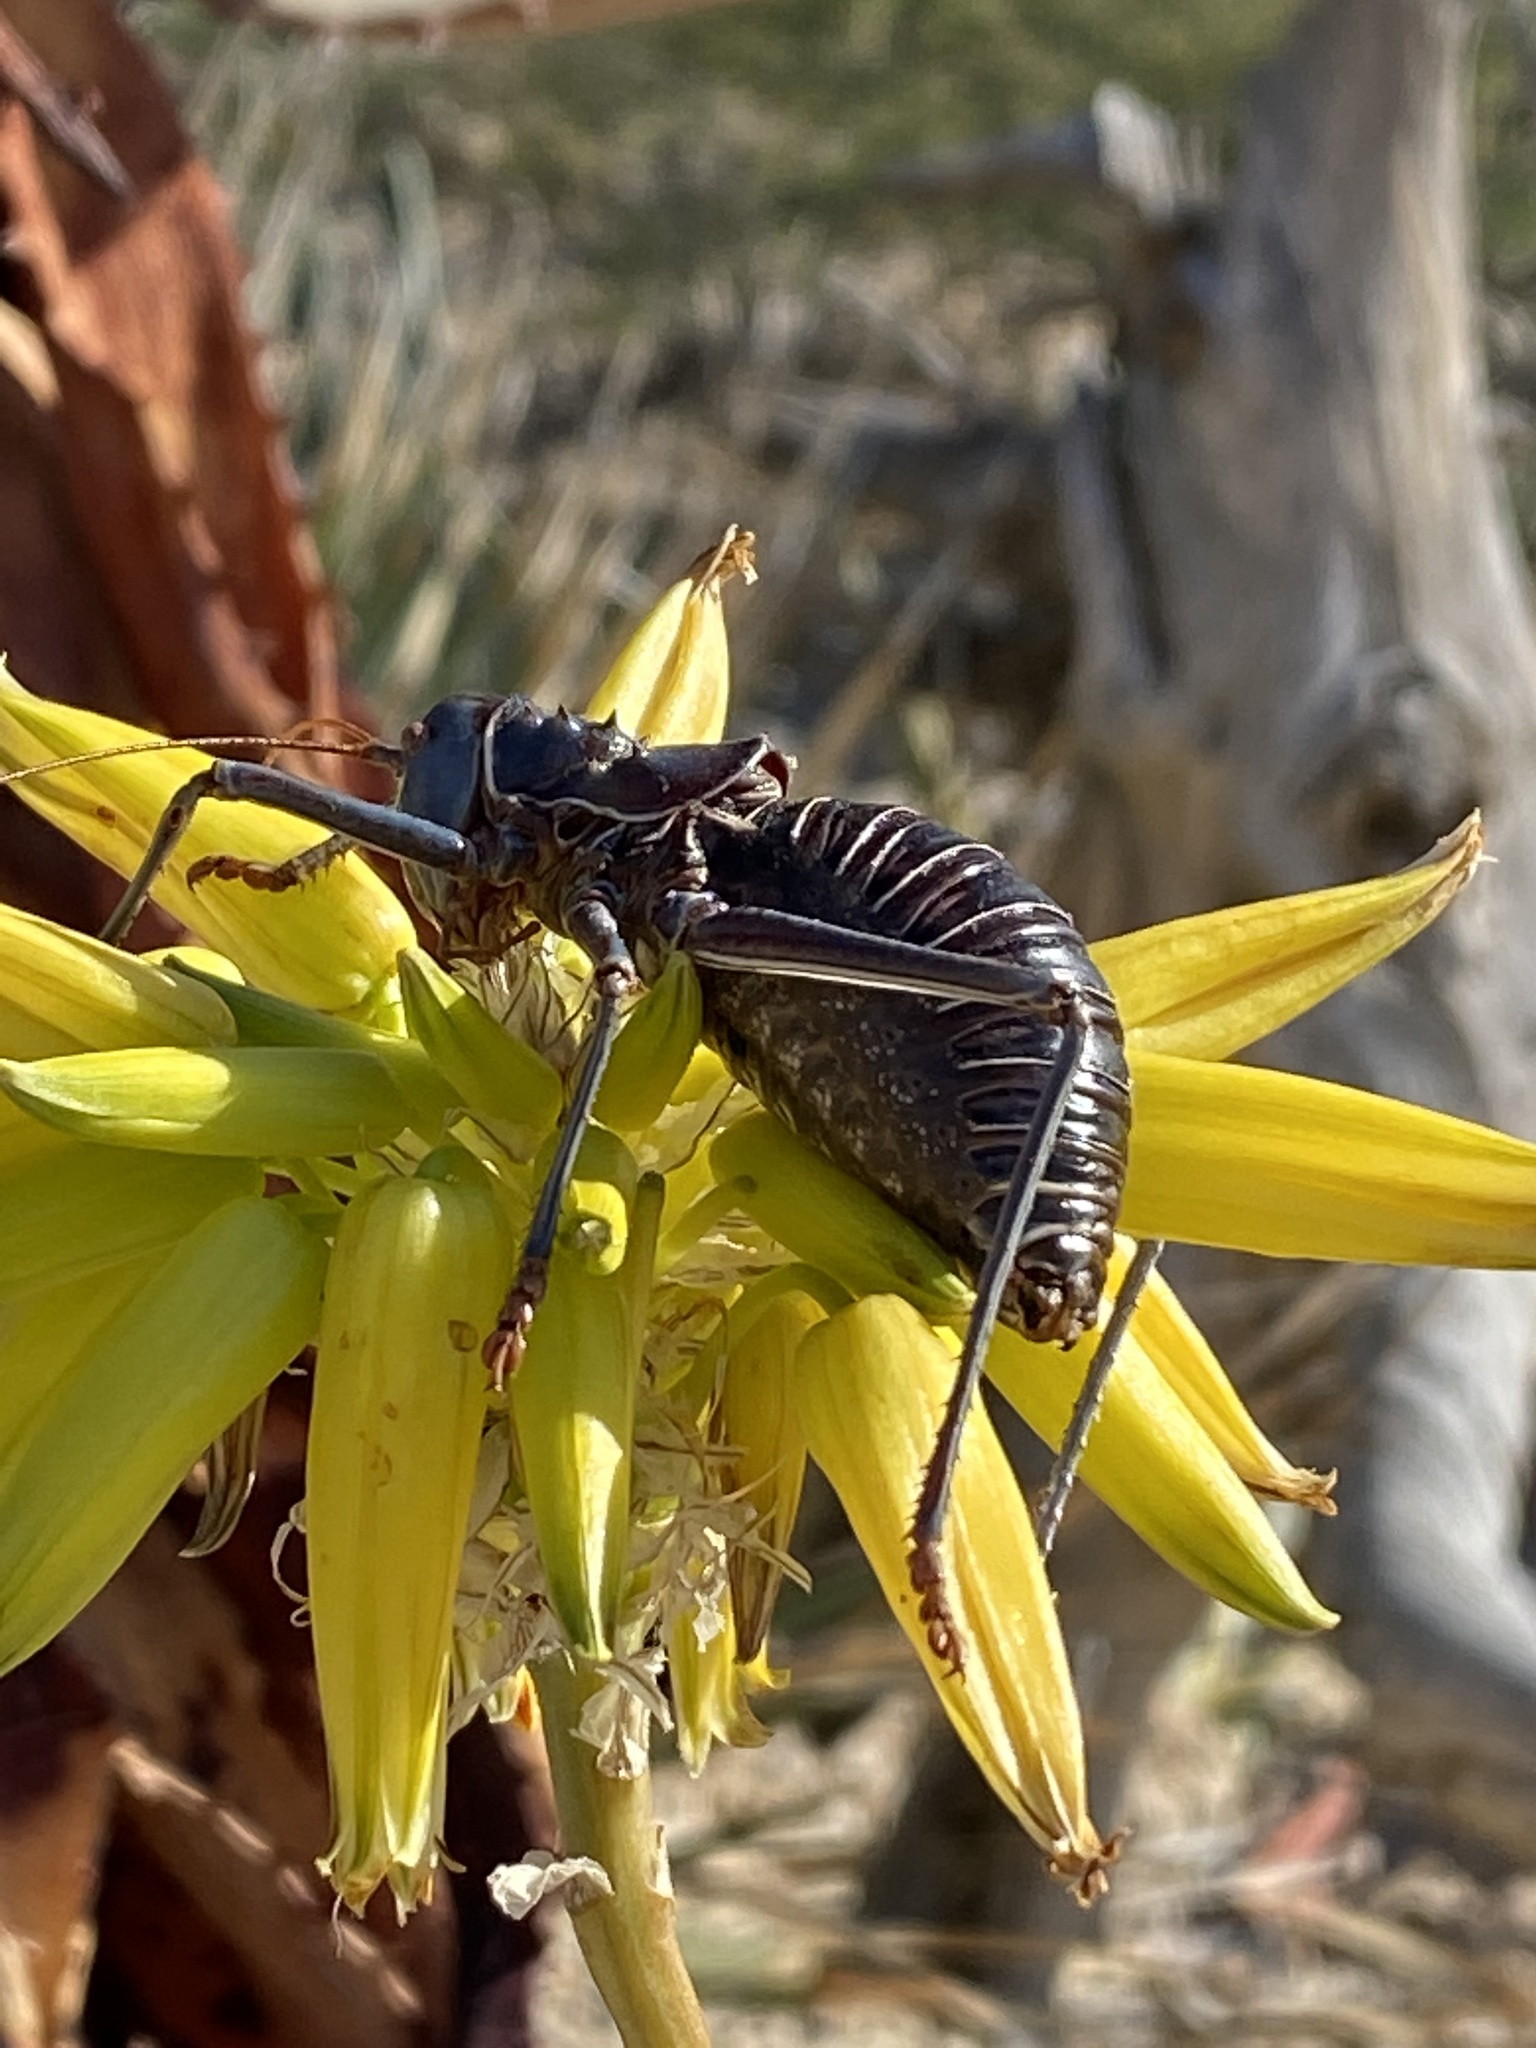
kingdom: Animalia
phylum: Arthropoda
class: Insecta
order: Orthoptera
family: Tettigoniidae
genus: Acanthoplus
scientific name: Acanthoplus discoidalis
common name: Armoured katydid
